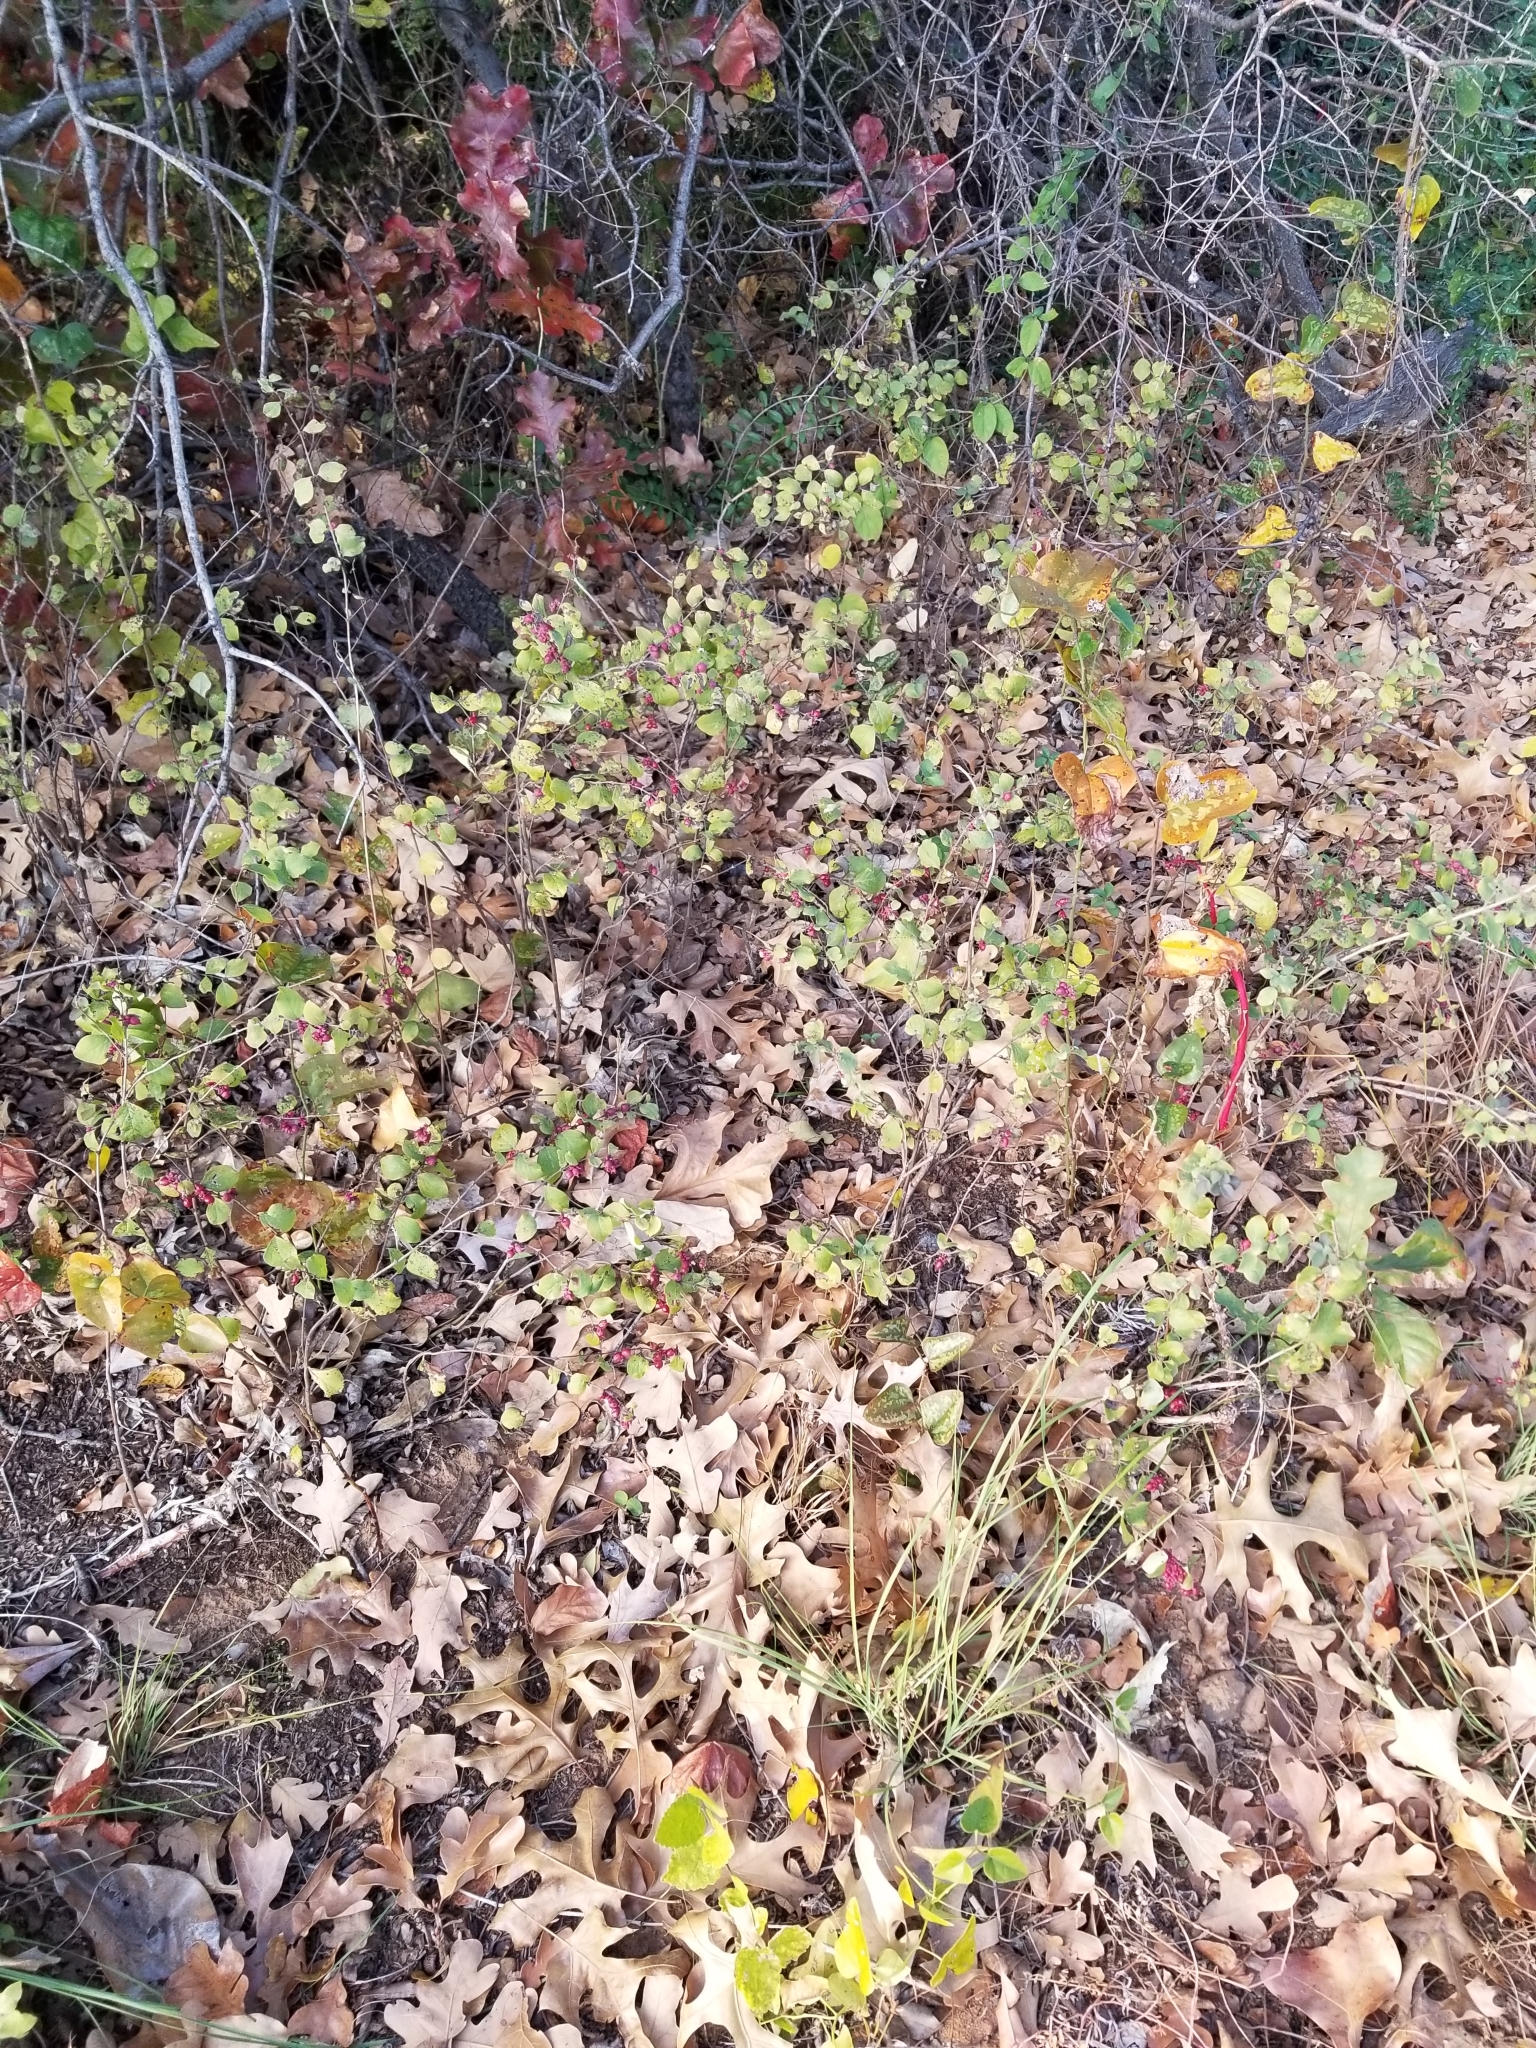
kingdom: Plantae
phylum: Tracheophyta
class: Magnoliopsida
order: Dipsacales
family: Caprifoliaceae
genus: Symphoricarpos
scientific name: Symphoricarpos orbiculatus
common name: Coralberry
